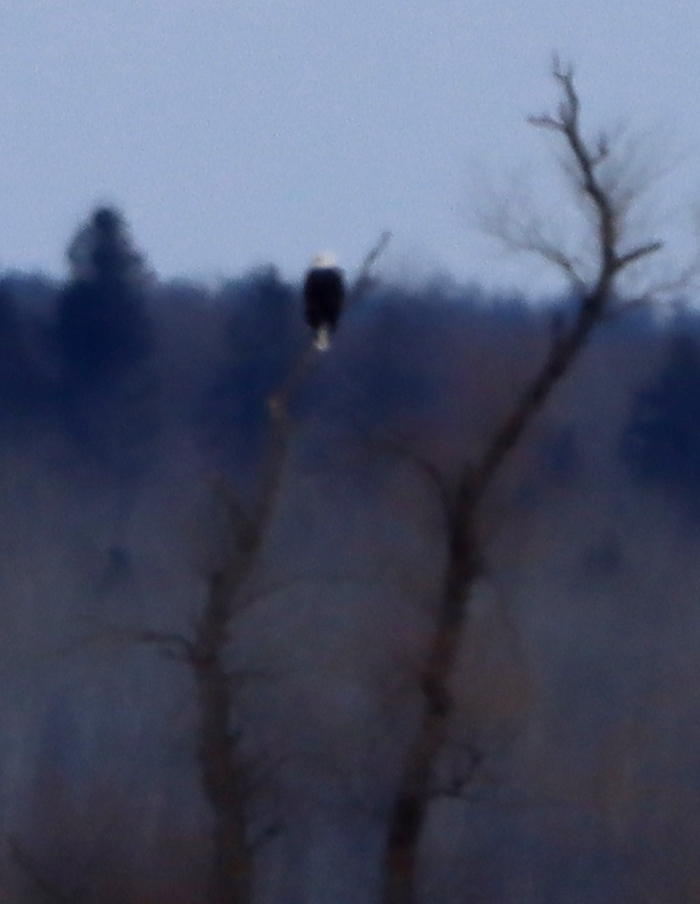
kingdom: Animalia
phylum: Chordata
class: Aves
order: Accipitriformes
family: Accipitridae
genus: Haliaeetus
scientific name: Haliaeetus leucocephalus
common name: Bald eagle
